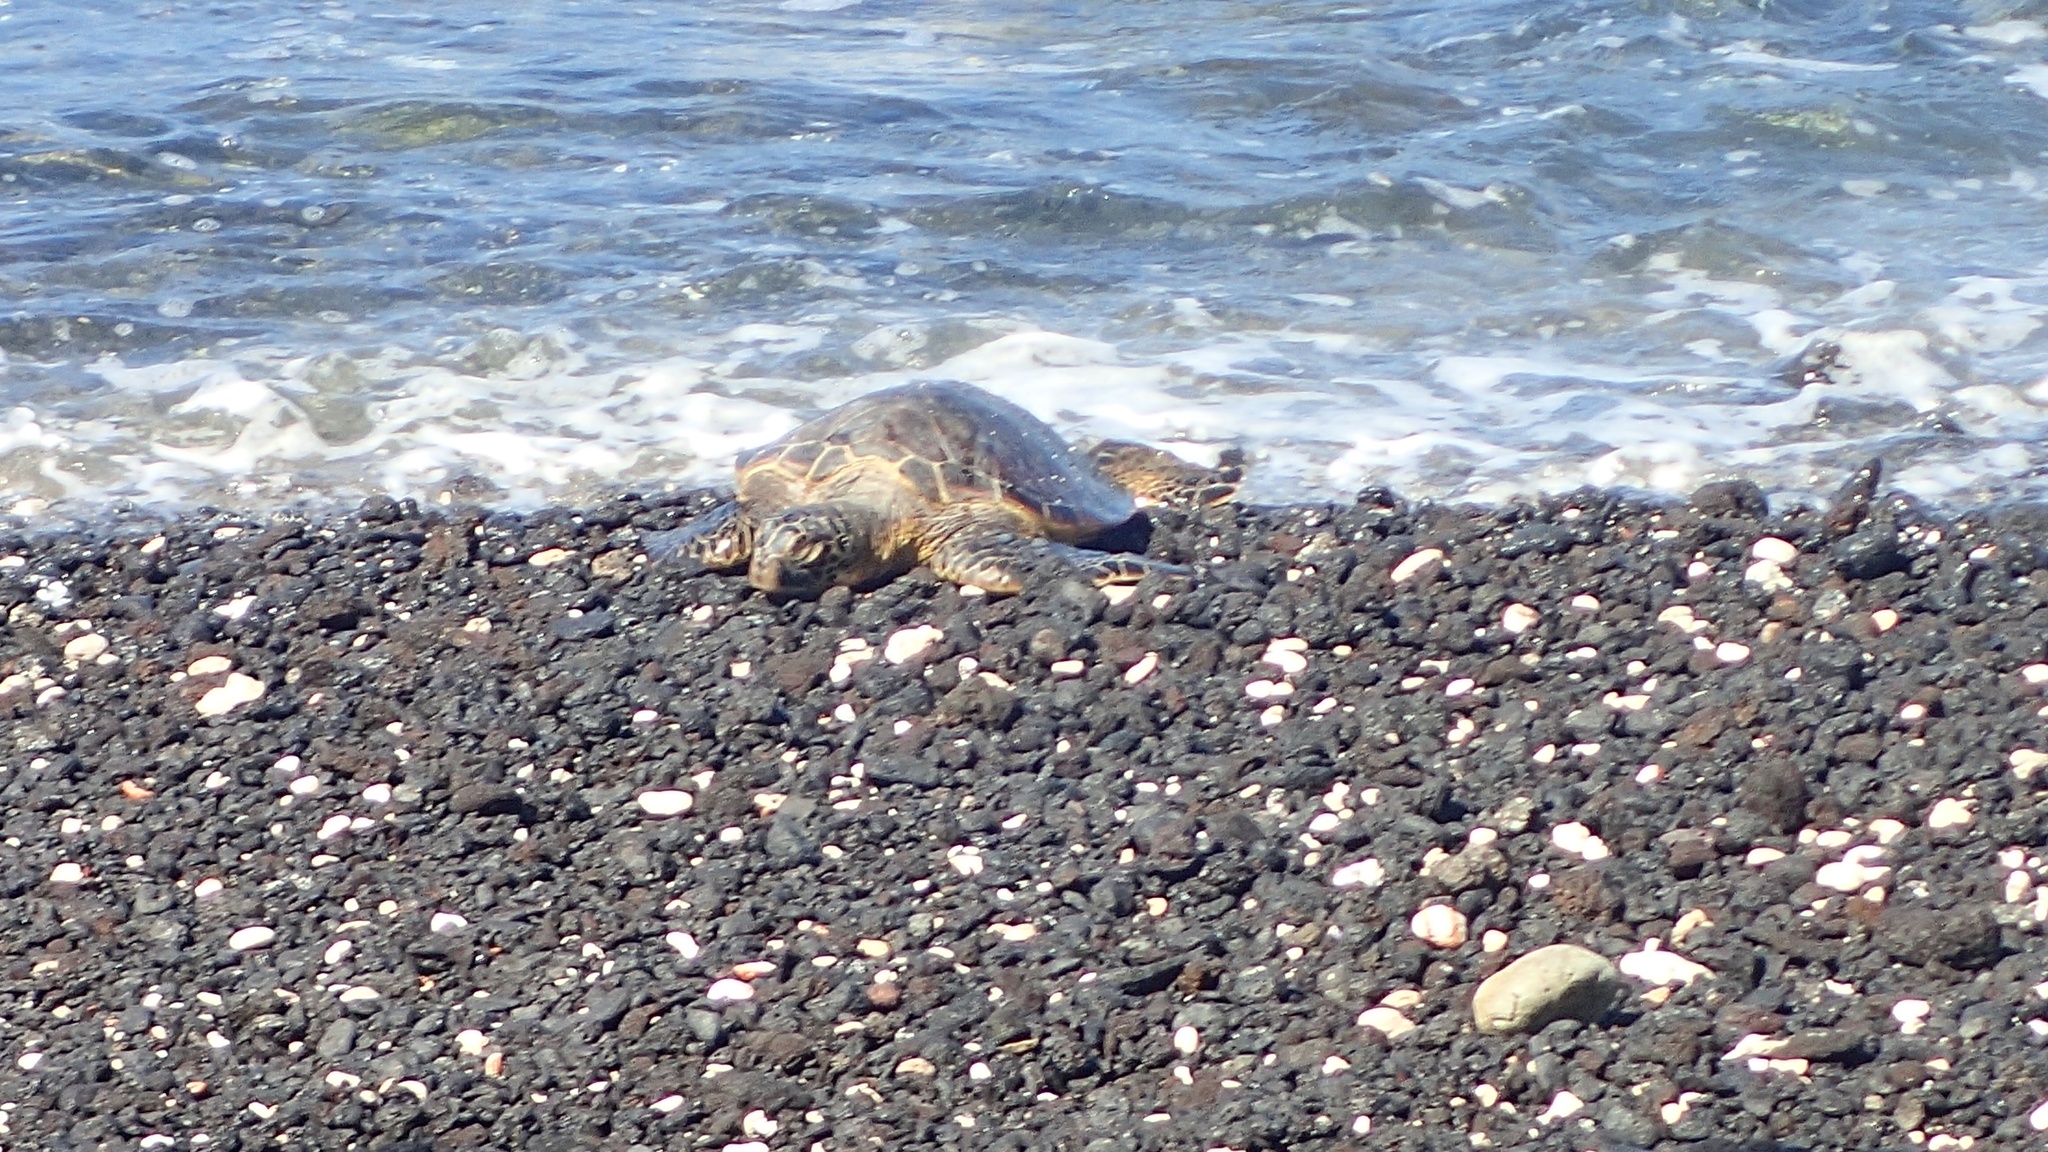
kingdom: Animalia
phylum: Chordata
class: Testudines
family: Cheloniidae
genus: Chelonia
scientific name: Chelonia mydas
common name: Green turtle
